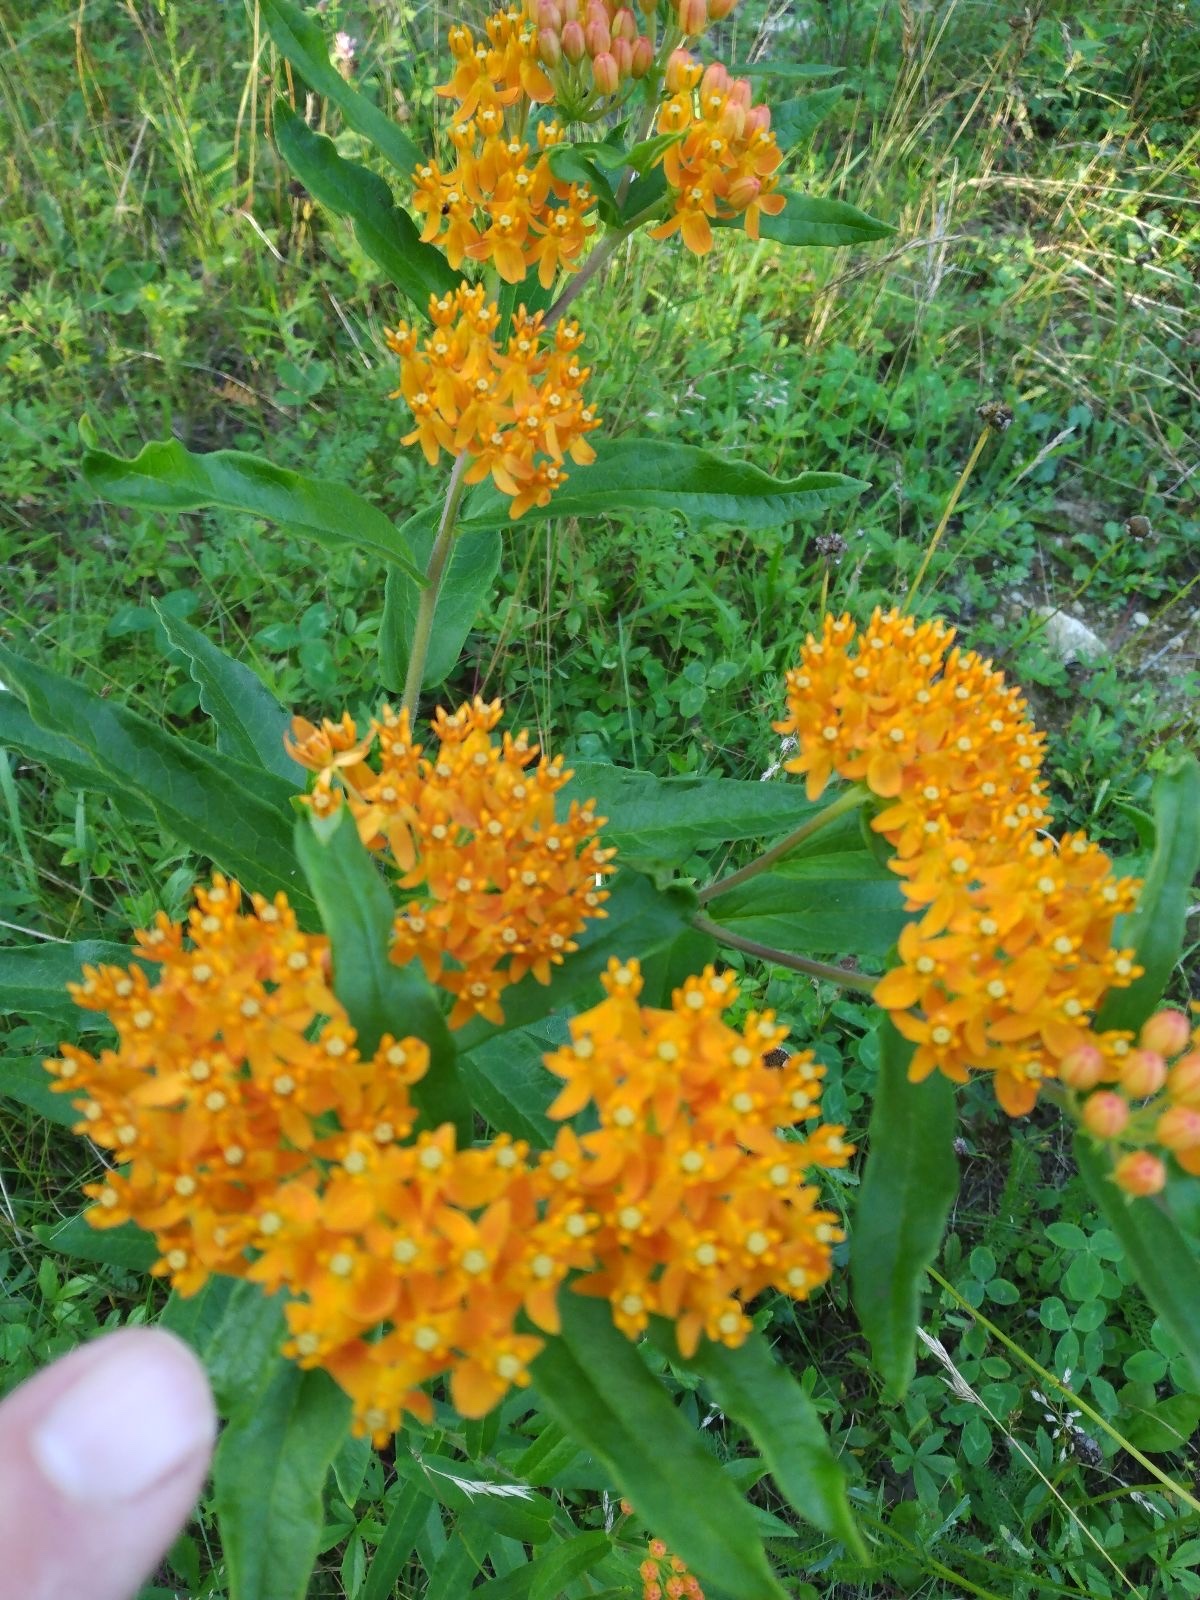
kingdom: Plantae
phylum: Tracheophyta
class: Magnoliopsida
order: Gentianales
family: Apocynaceae
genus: Asclepias
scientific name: Asclepias tuberosa
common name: Butterfly milkweed
